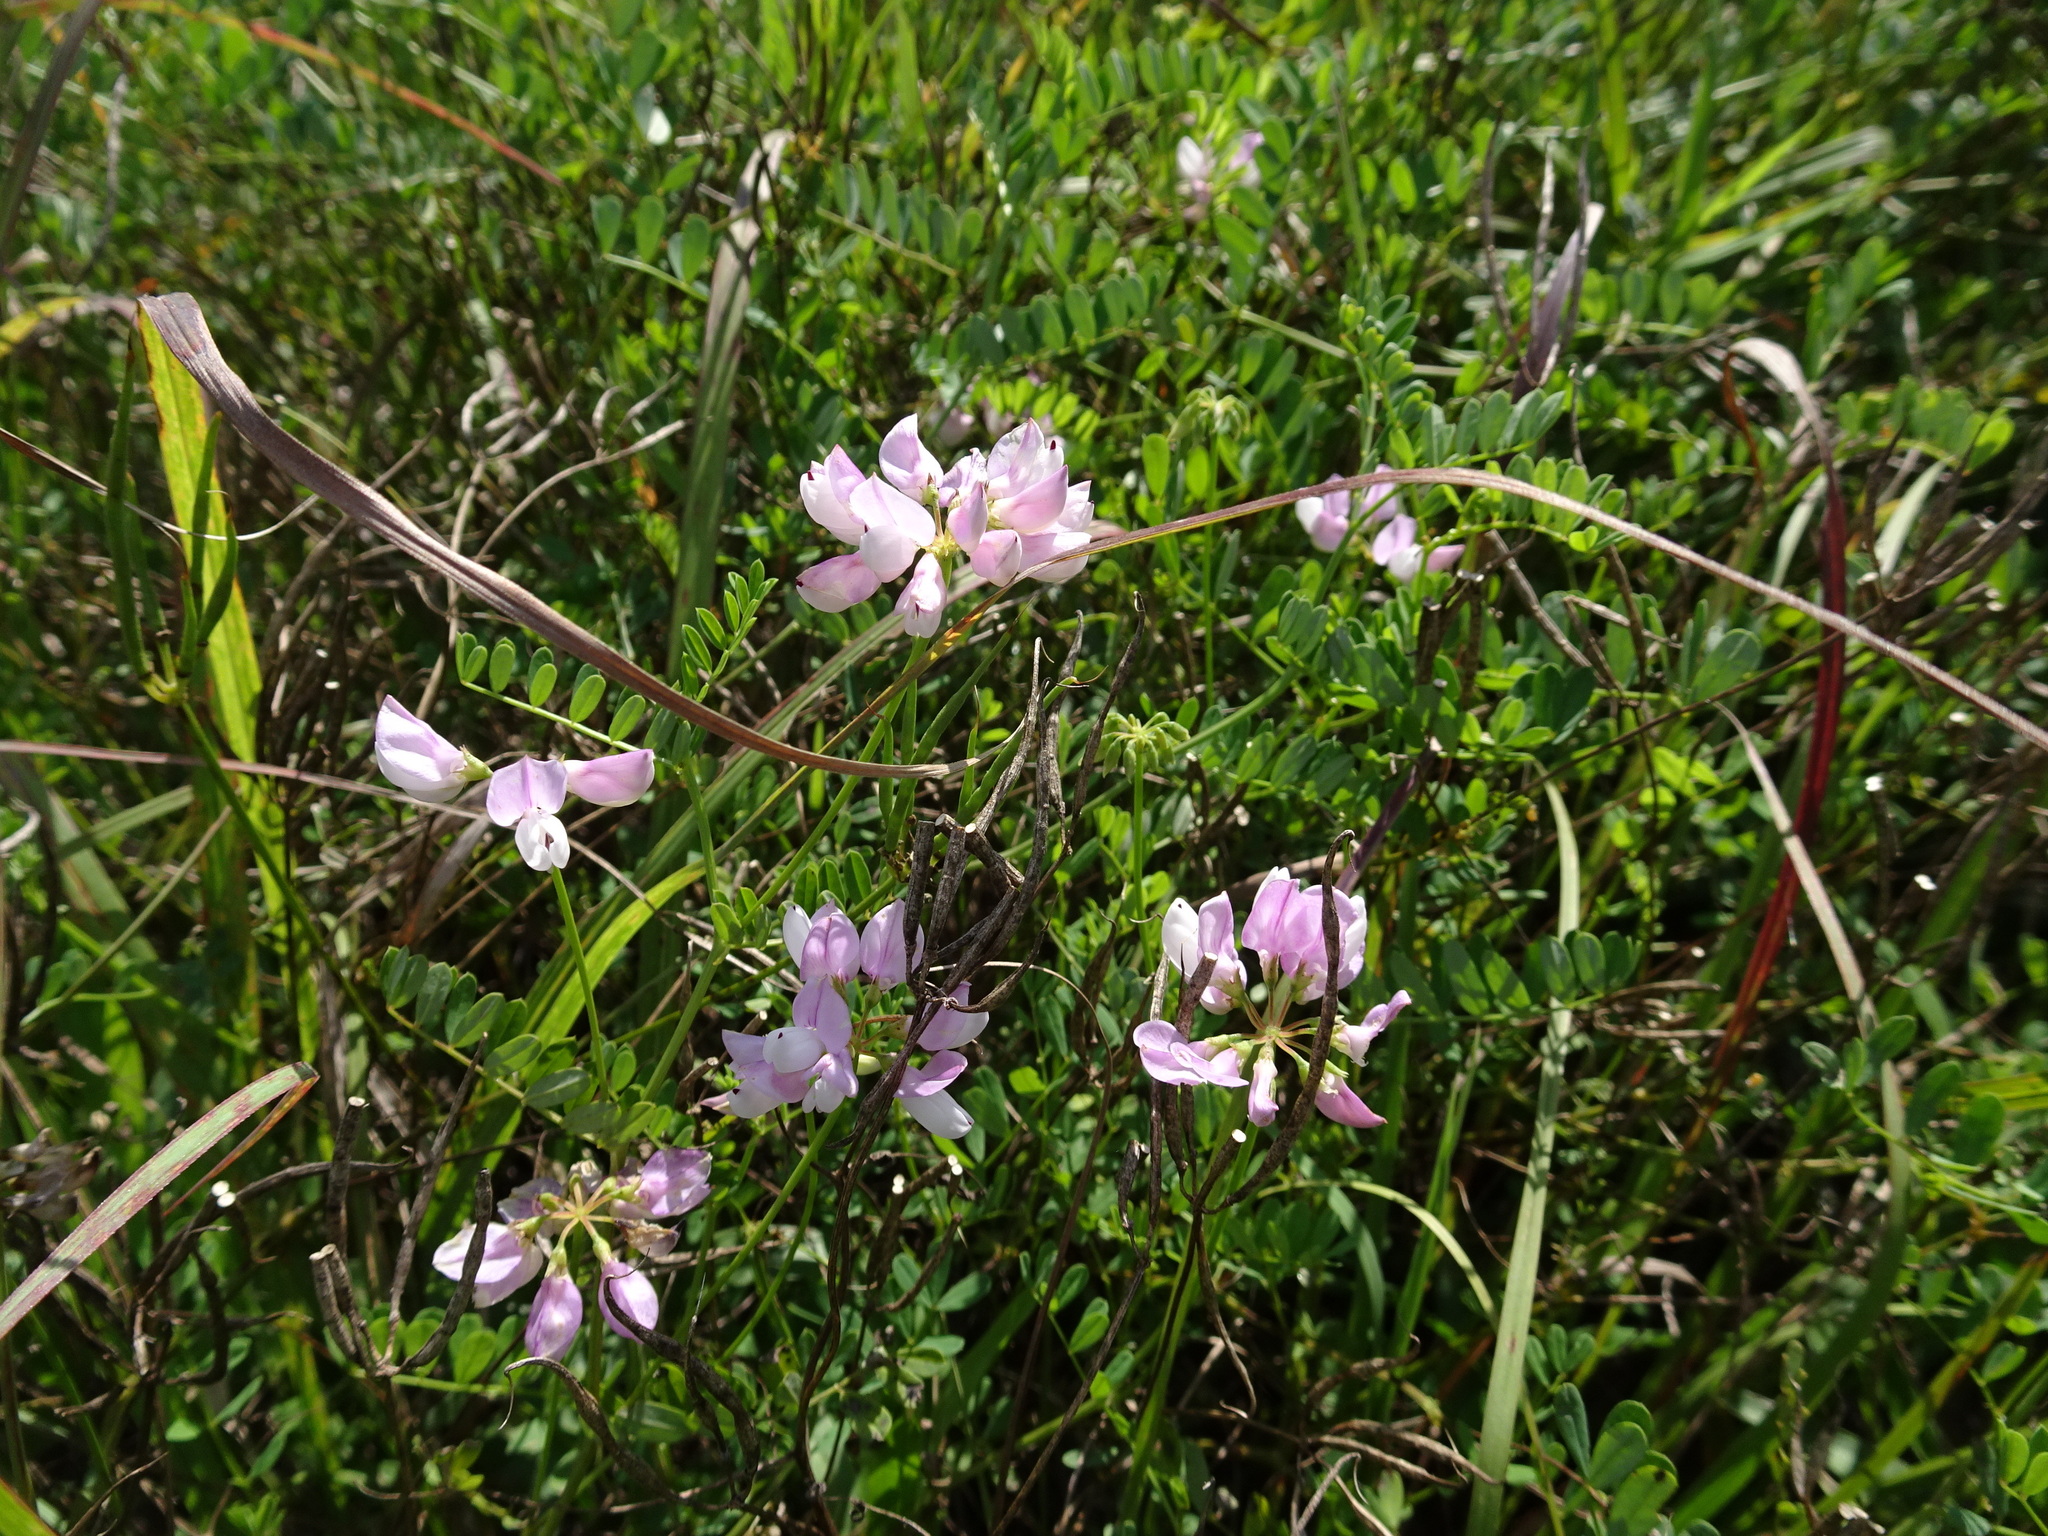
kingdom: Plantae
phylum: Tracheophyta
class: Magnoliopsida
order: Fabales
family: Fabaceae
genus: Coronilla
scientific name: Coronilla varia
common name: Crownvetch
